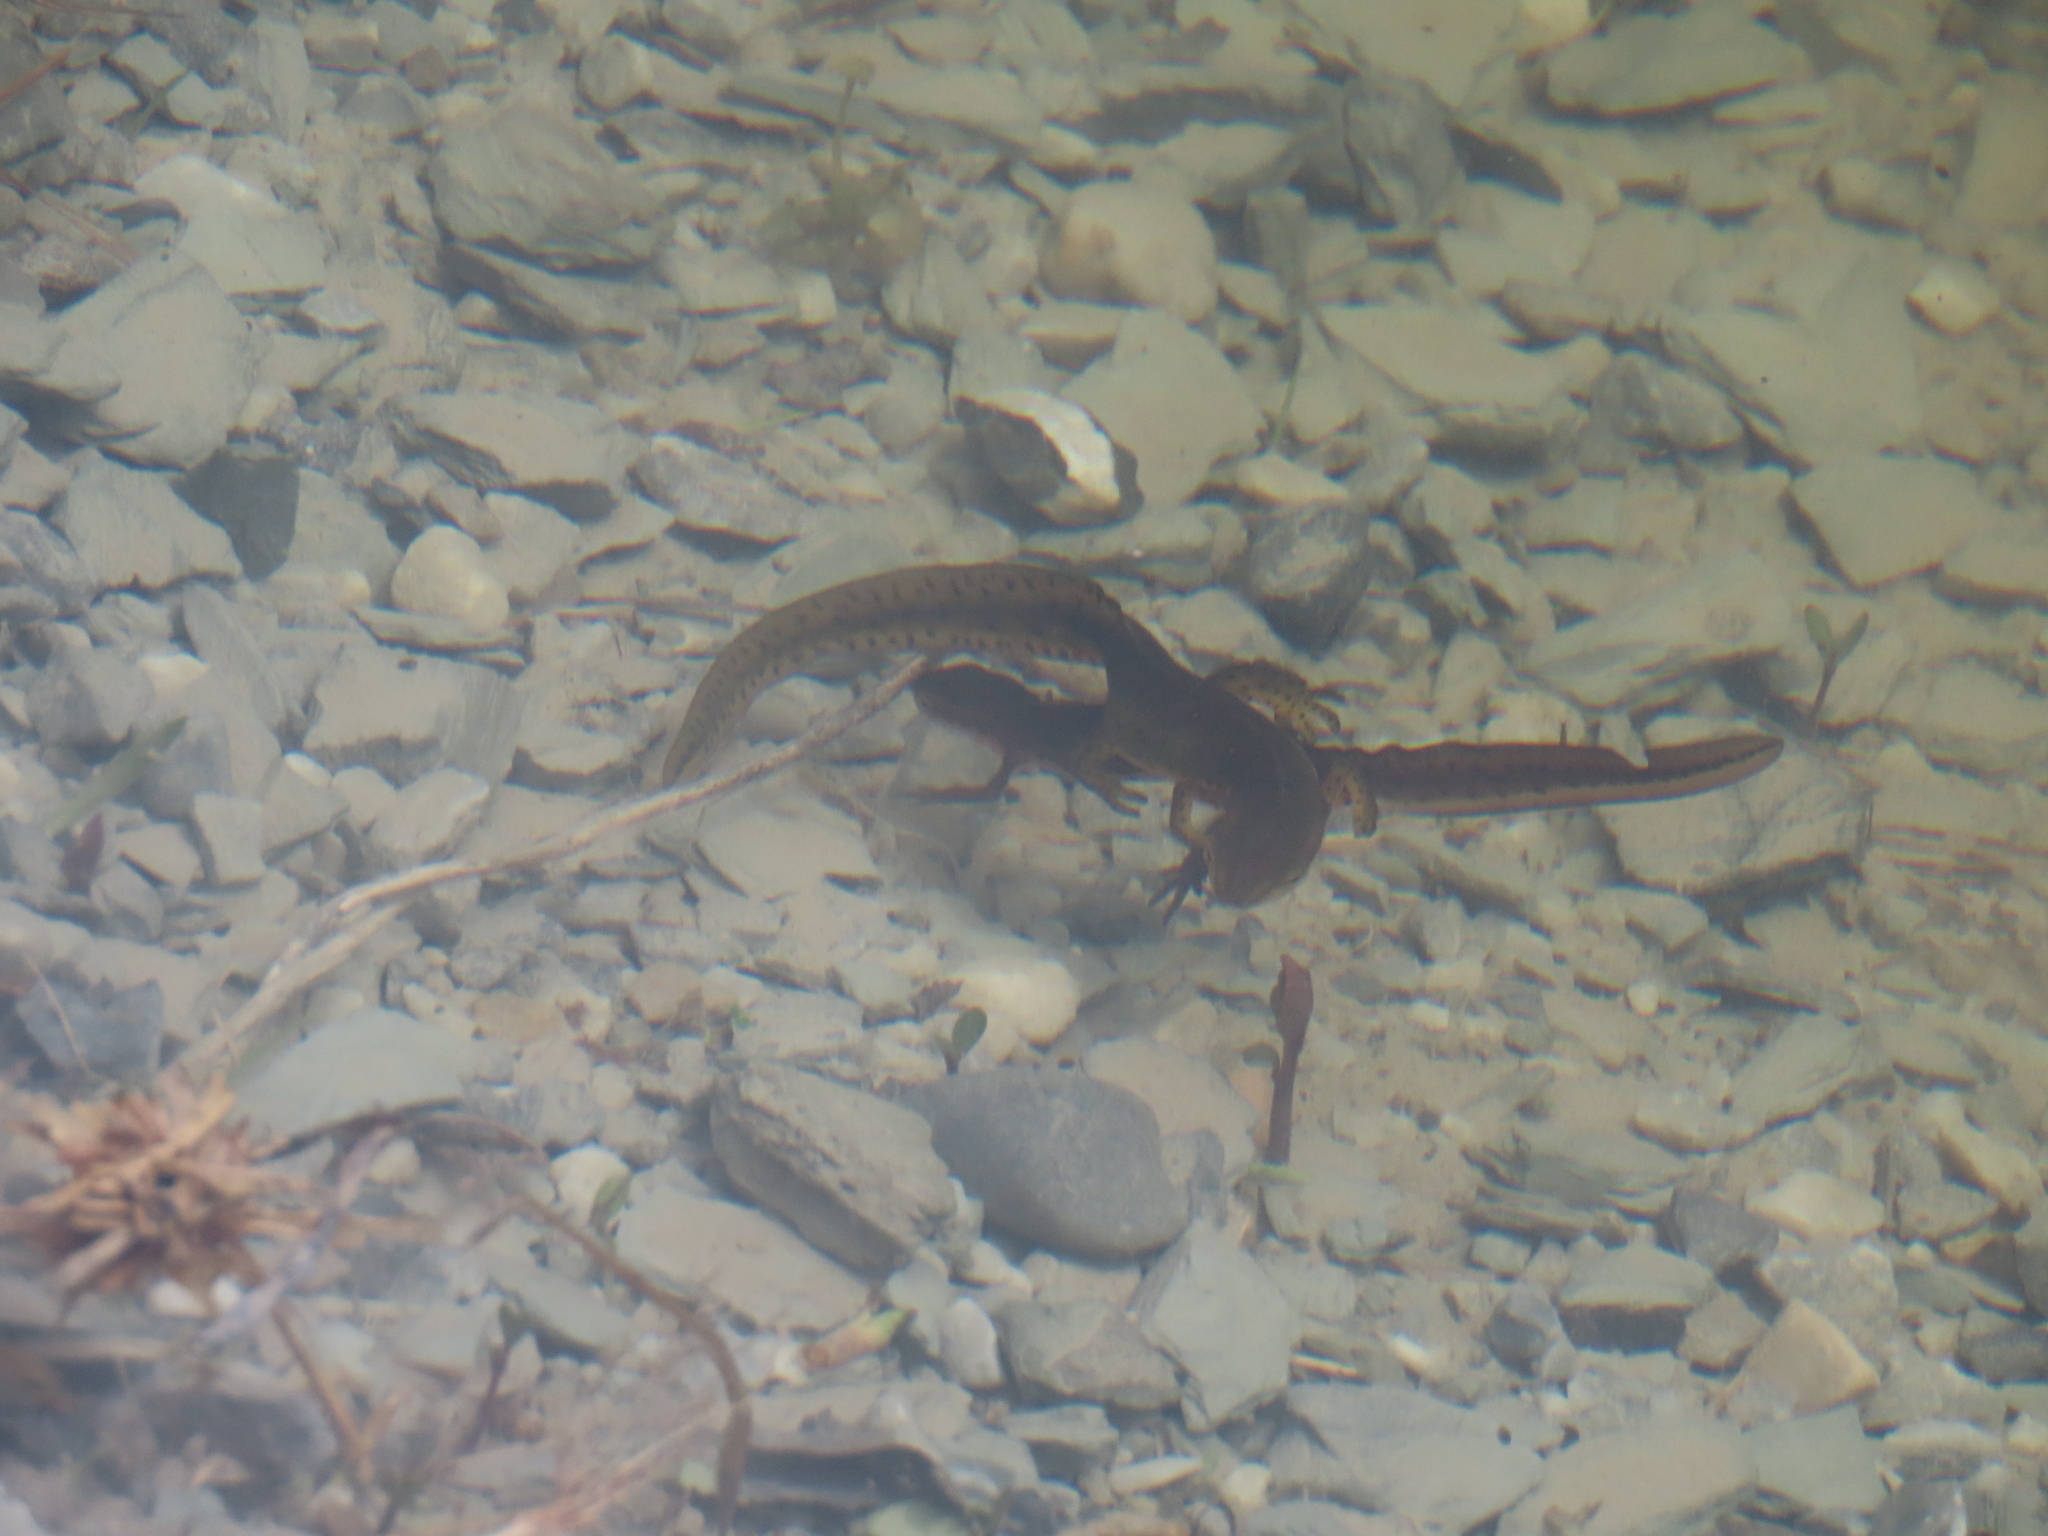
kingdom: Animalia
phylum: Chordata
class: Amphibia
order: Caudata
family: Salamandridae
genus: Notophthalmus
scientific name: Notophthalmus viridescens
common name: Eastern newt
